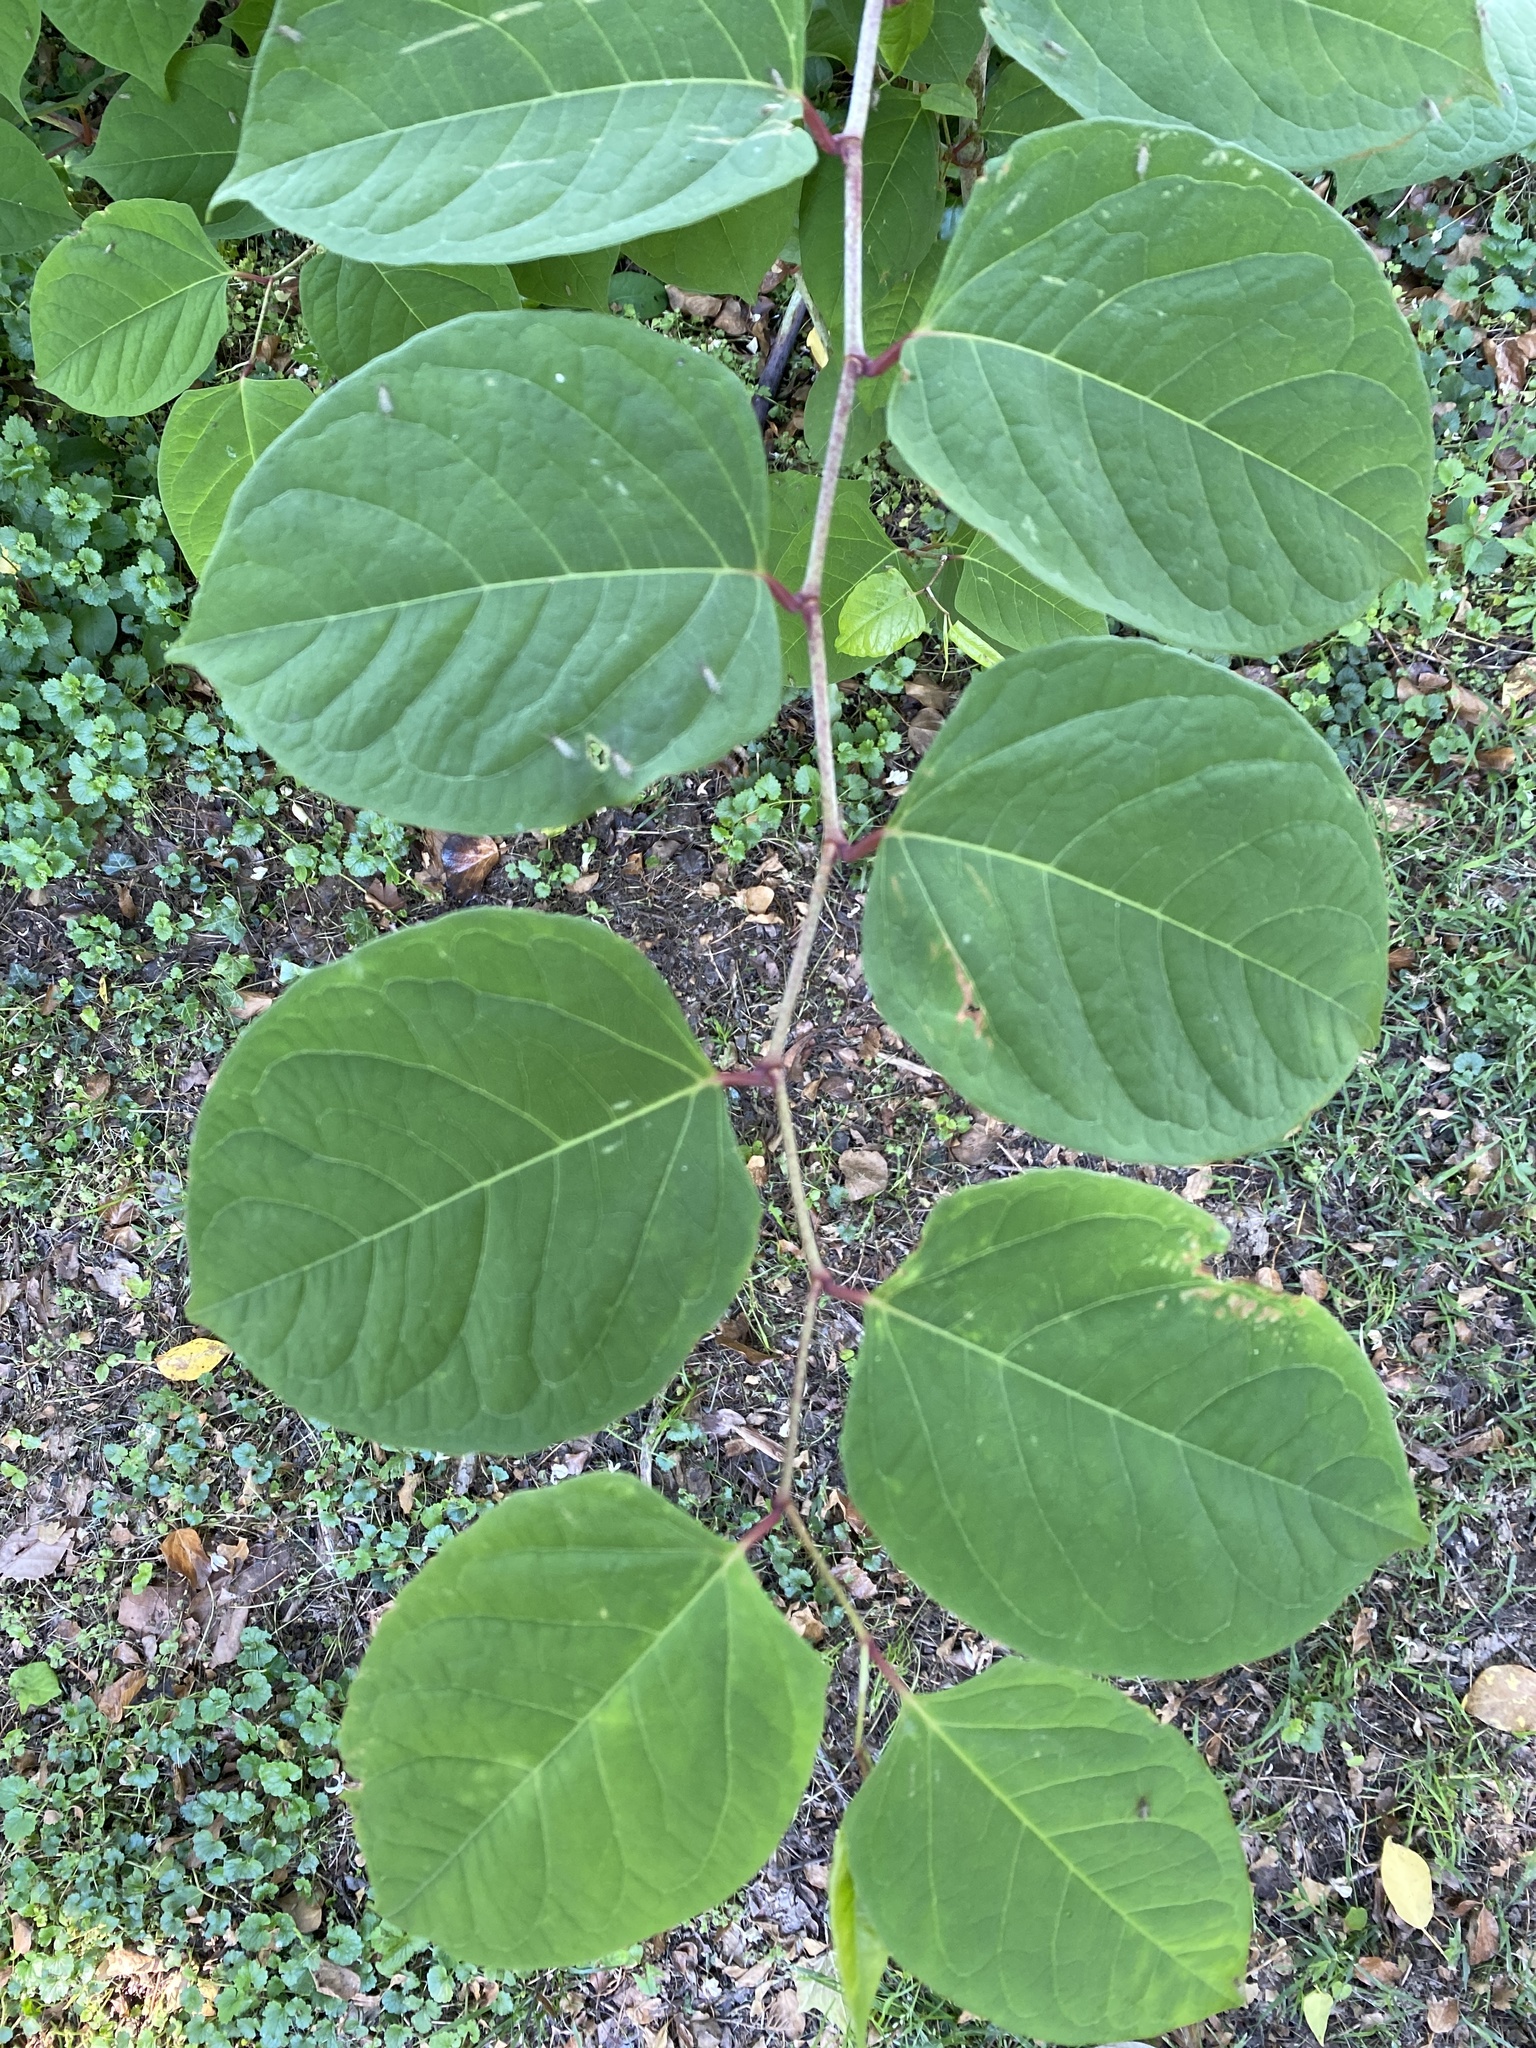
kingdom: Plantae
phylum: Tracheophyta
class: Magnoliopsida
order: Caryophyllales
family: Polygonaceae
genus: Reynoutria
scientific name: Reynoutria japonica
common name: Japanese knotweed
